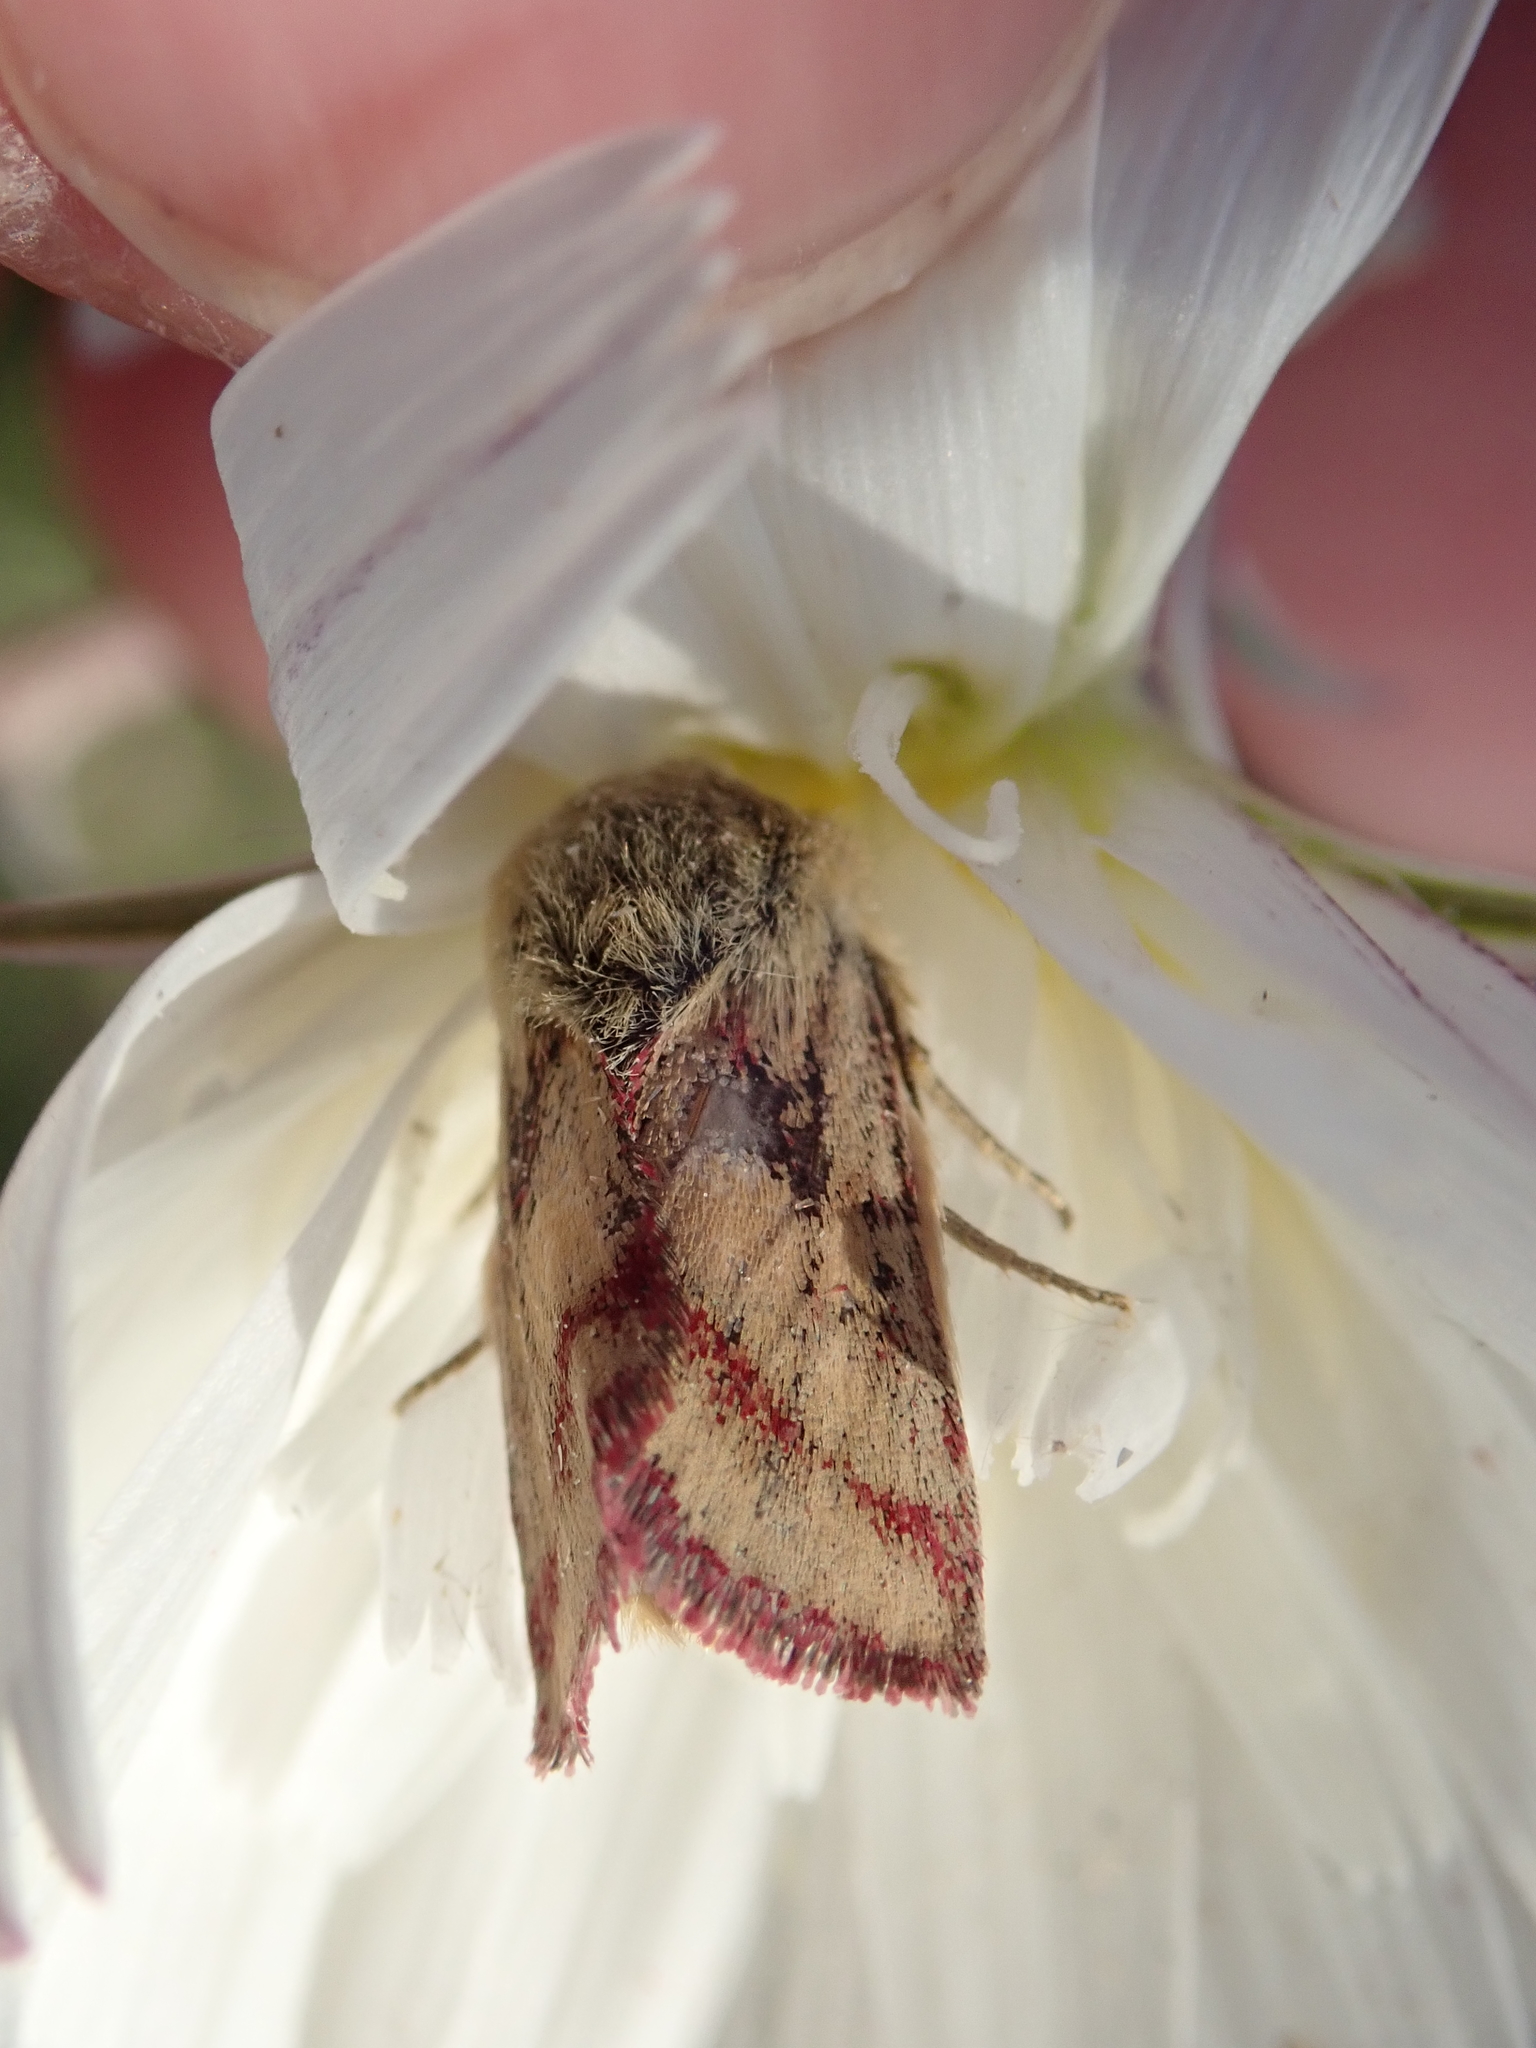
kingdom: Animalia
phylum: Arthropoda
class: Insecta
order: Lepidoptera
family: Noctuidae
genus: Heliolonche
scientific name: Heliolonche pictipennis
